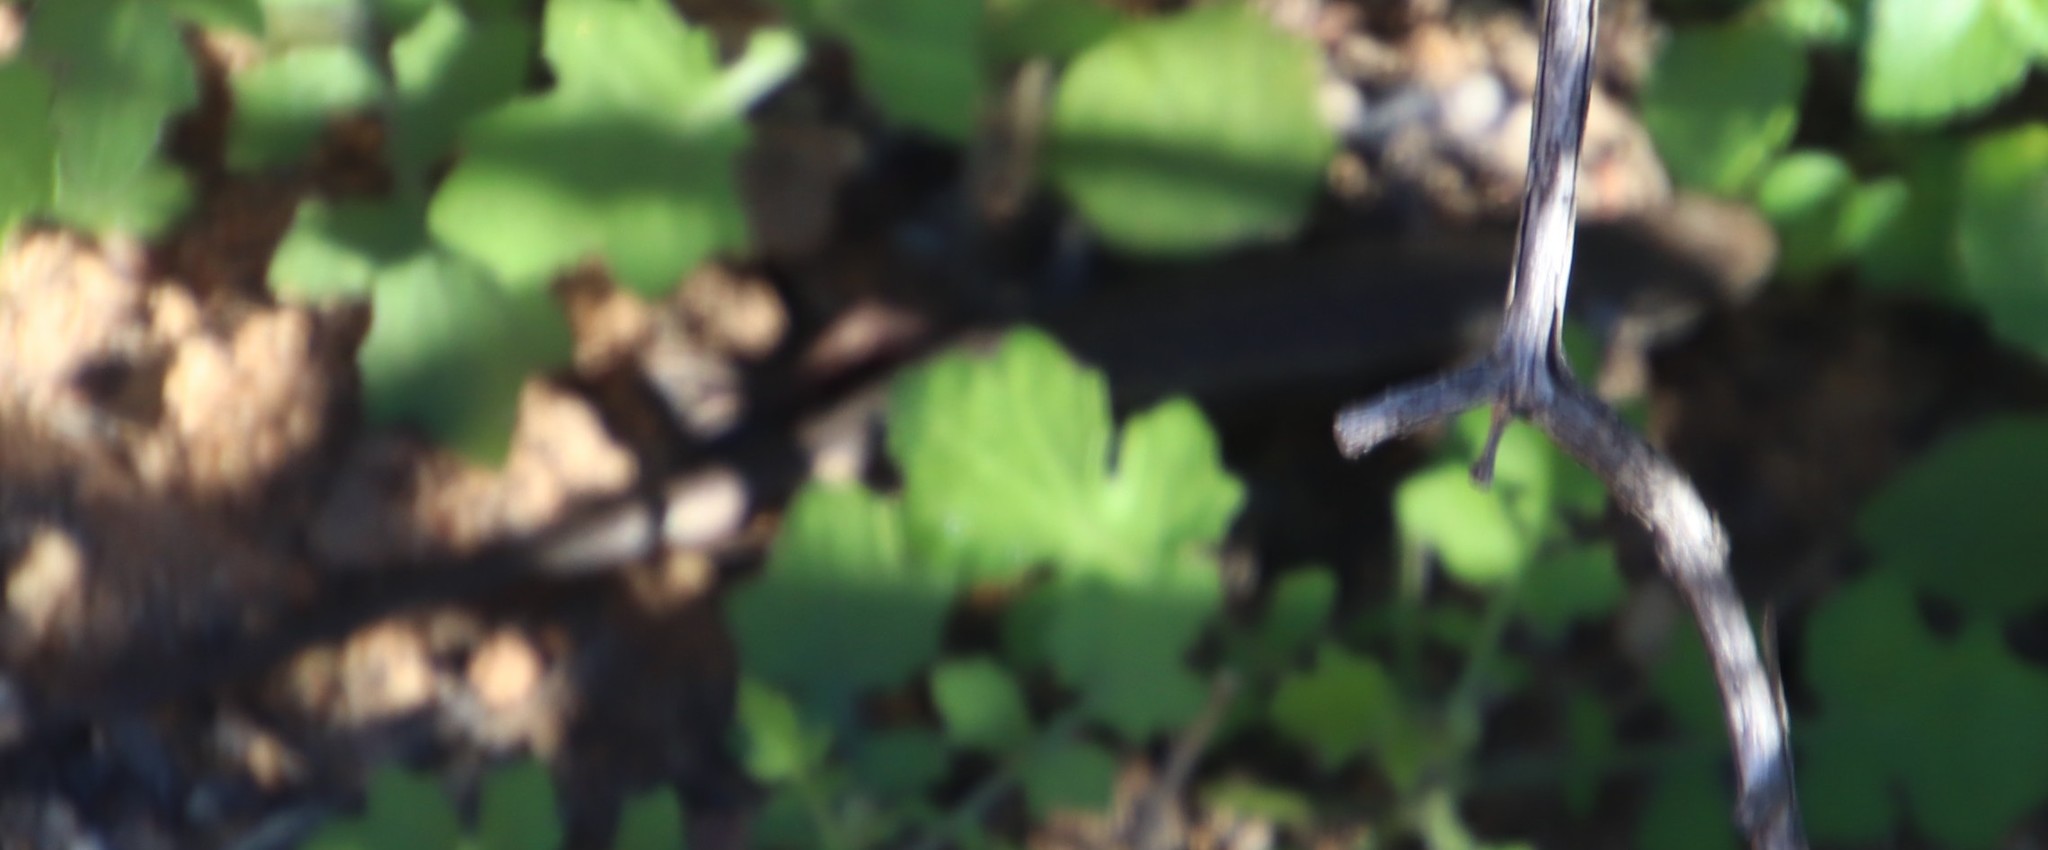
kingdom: Animalia
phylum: Chordata
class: Squamata
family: Scincidae
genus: Trachylepis
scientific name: Trachylepis variegata
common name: Variegated skink
